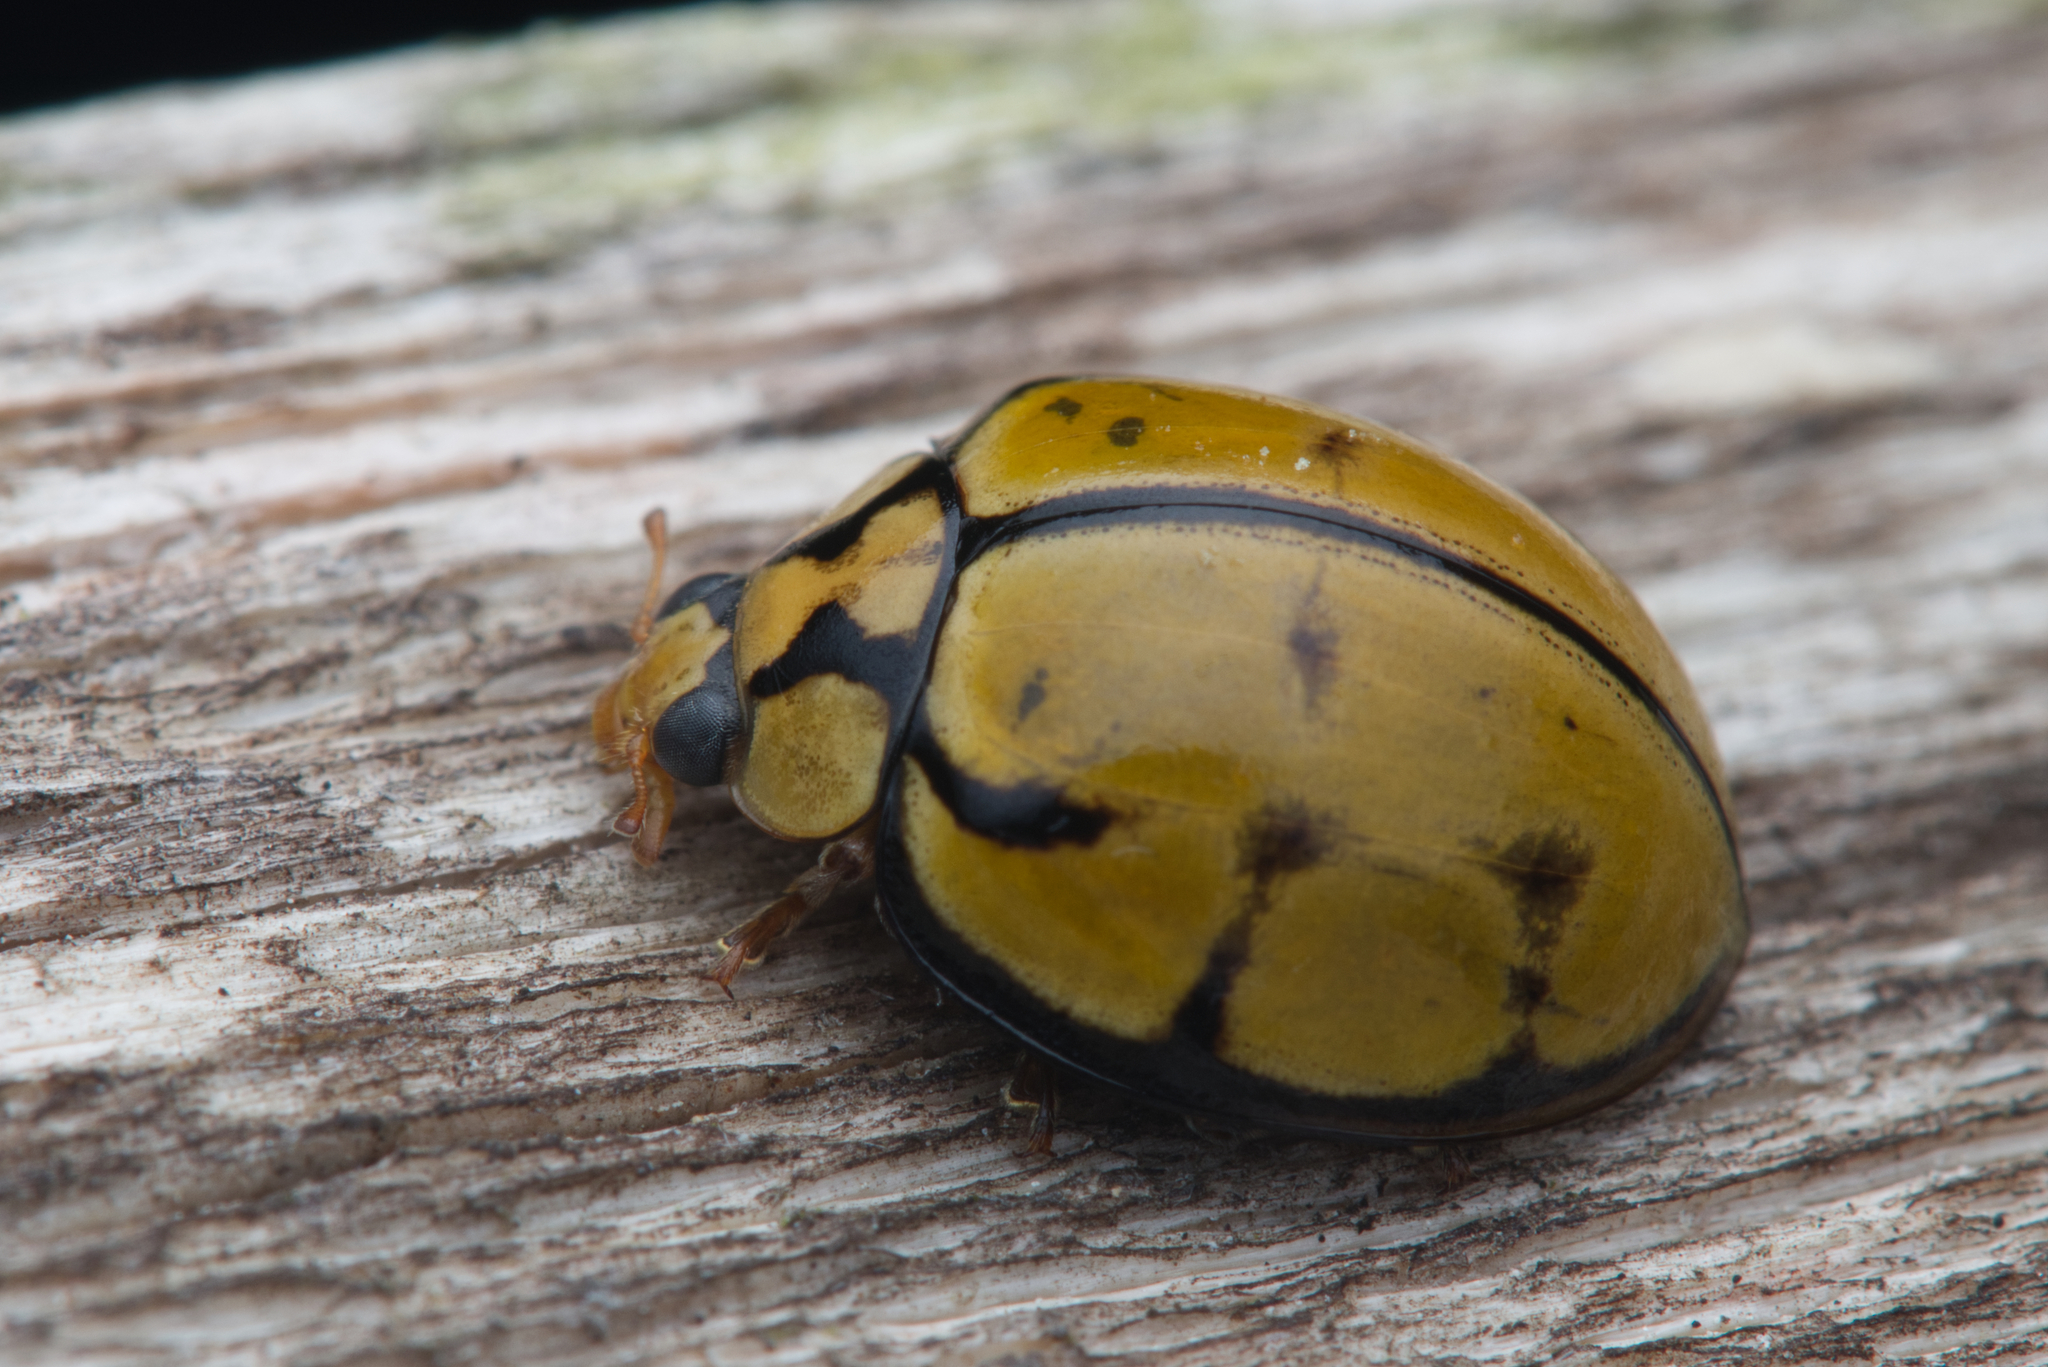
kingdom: Animalia
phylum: Arthropoda
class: Insecta
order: Coleoptera
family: Coccinellidae
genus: Harmonia
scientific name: Harmonia
